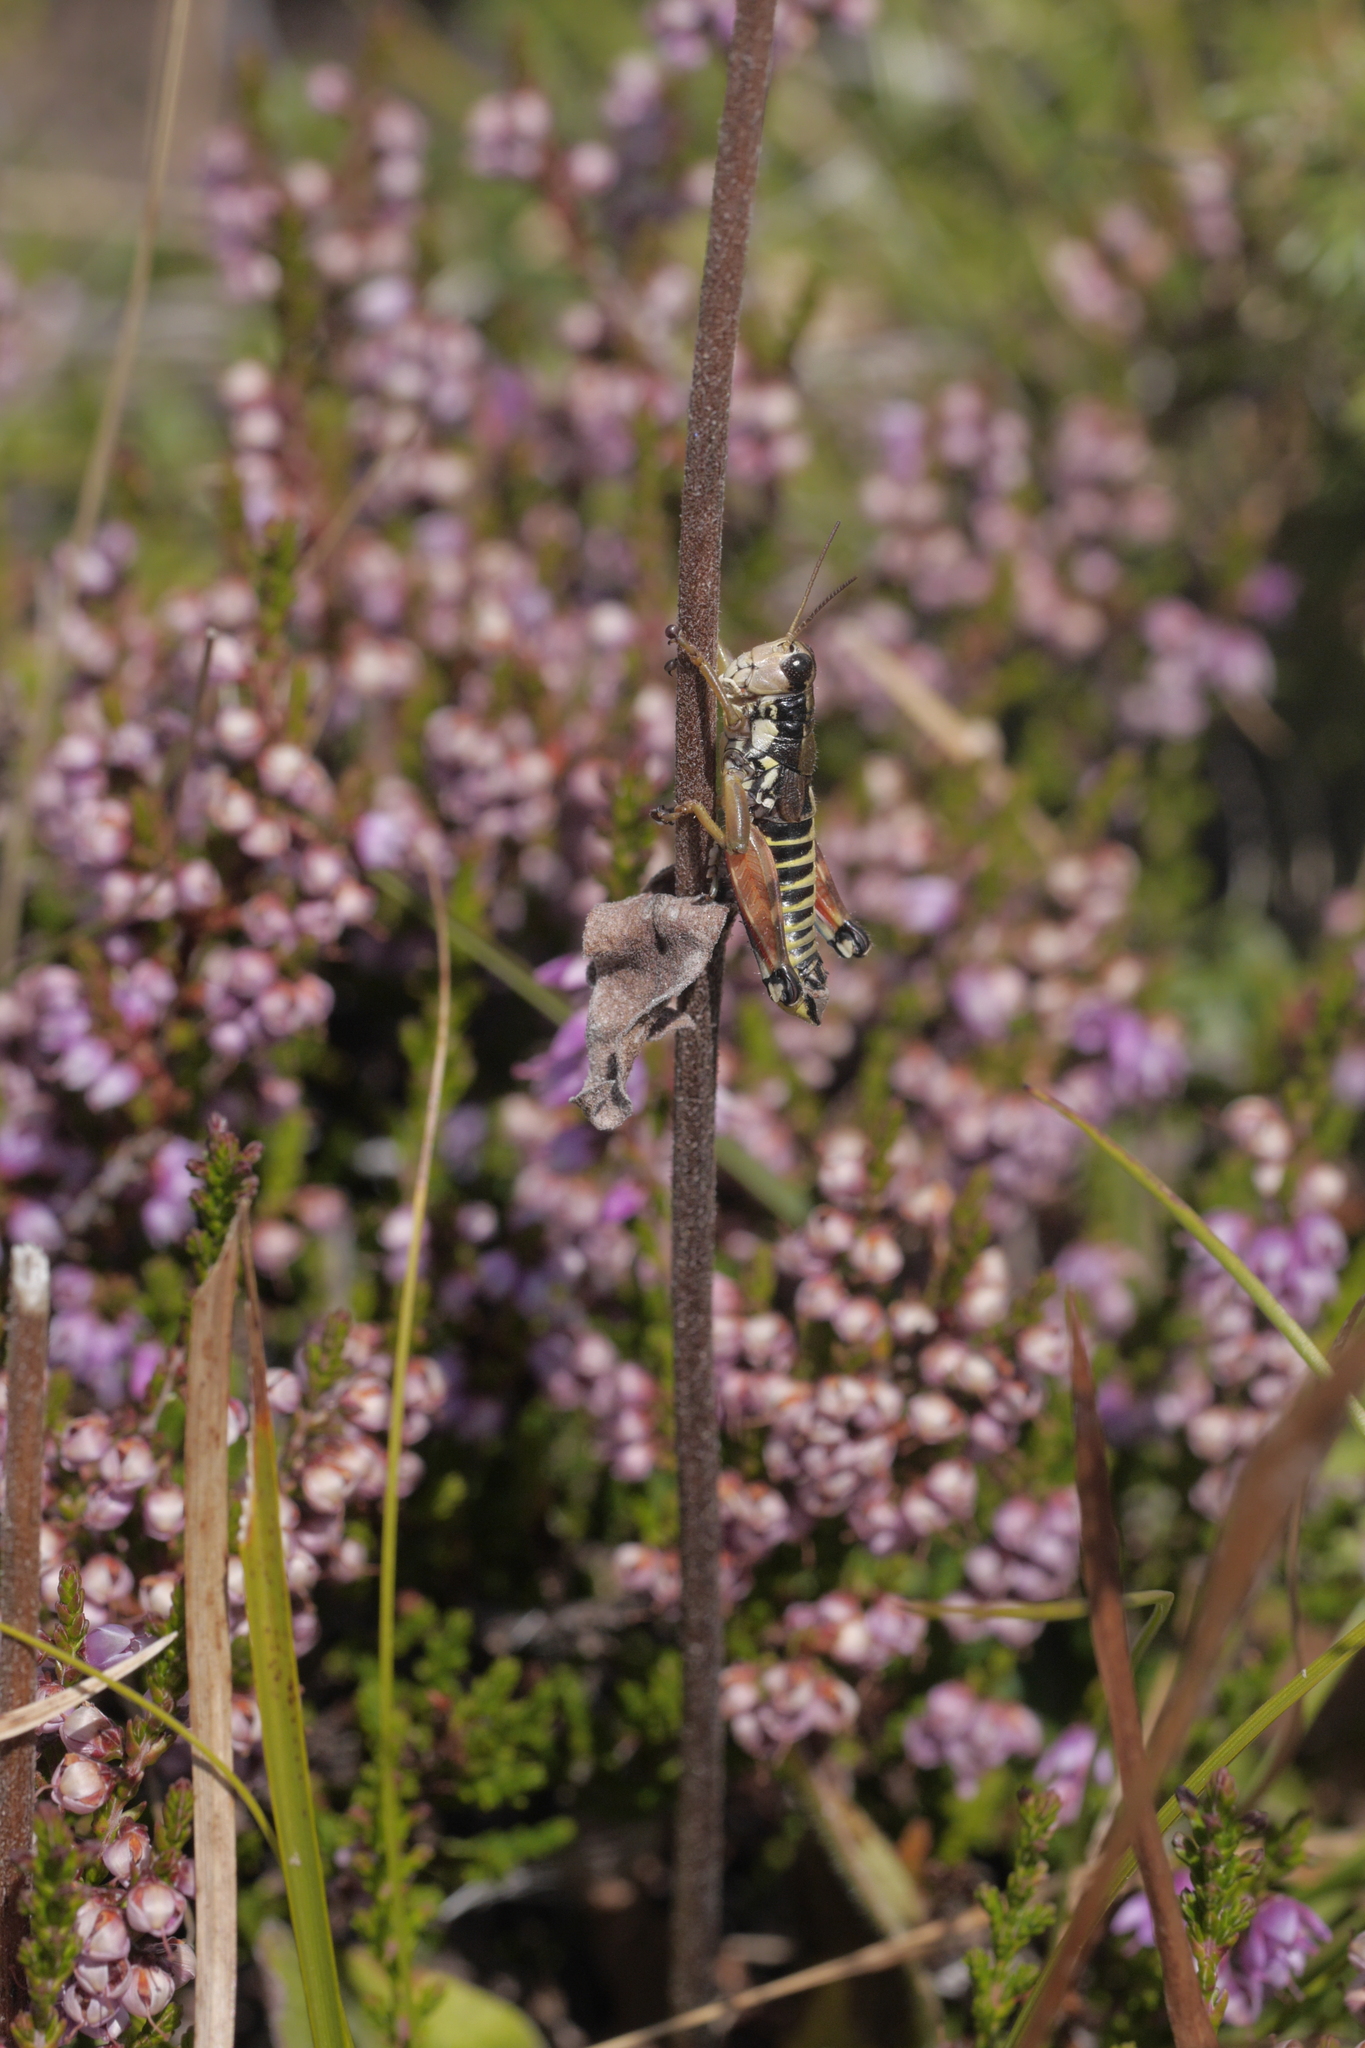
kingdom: Animalia
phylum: Arthropoda
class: Insecta
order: Orthoptera
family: Acrididae
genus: Podisma
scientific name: Podisma pedestris
